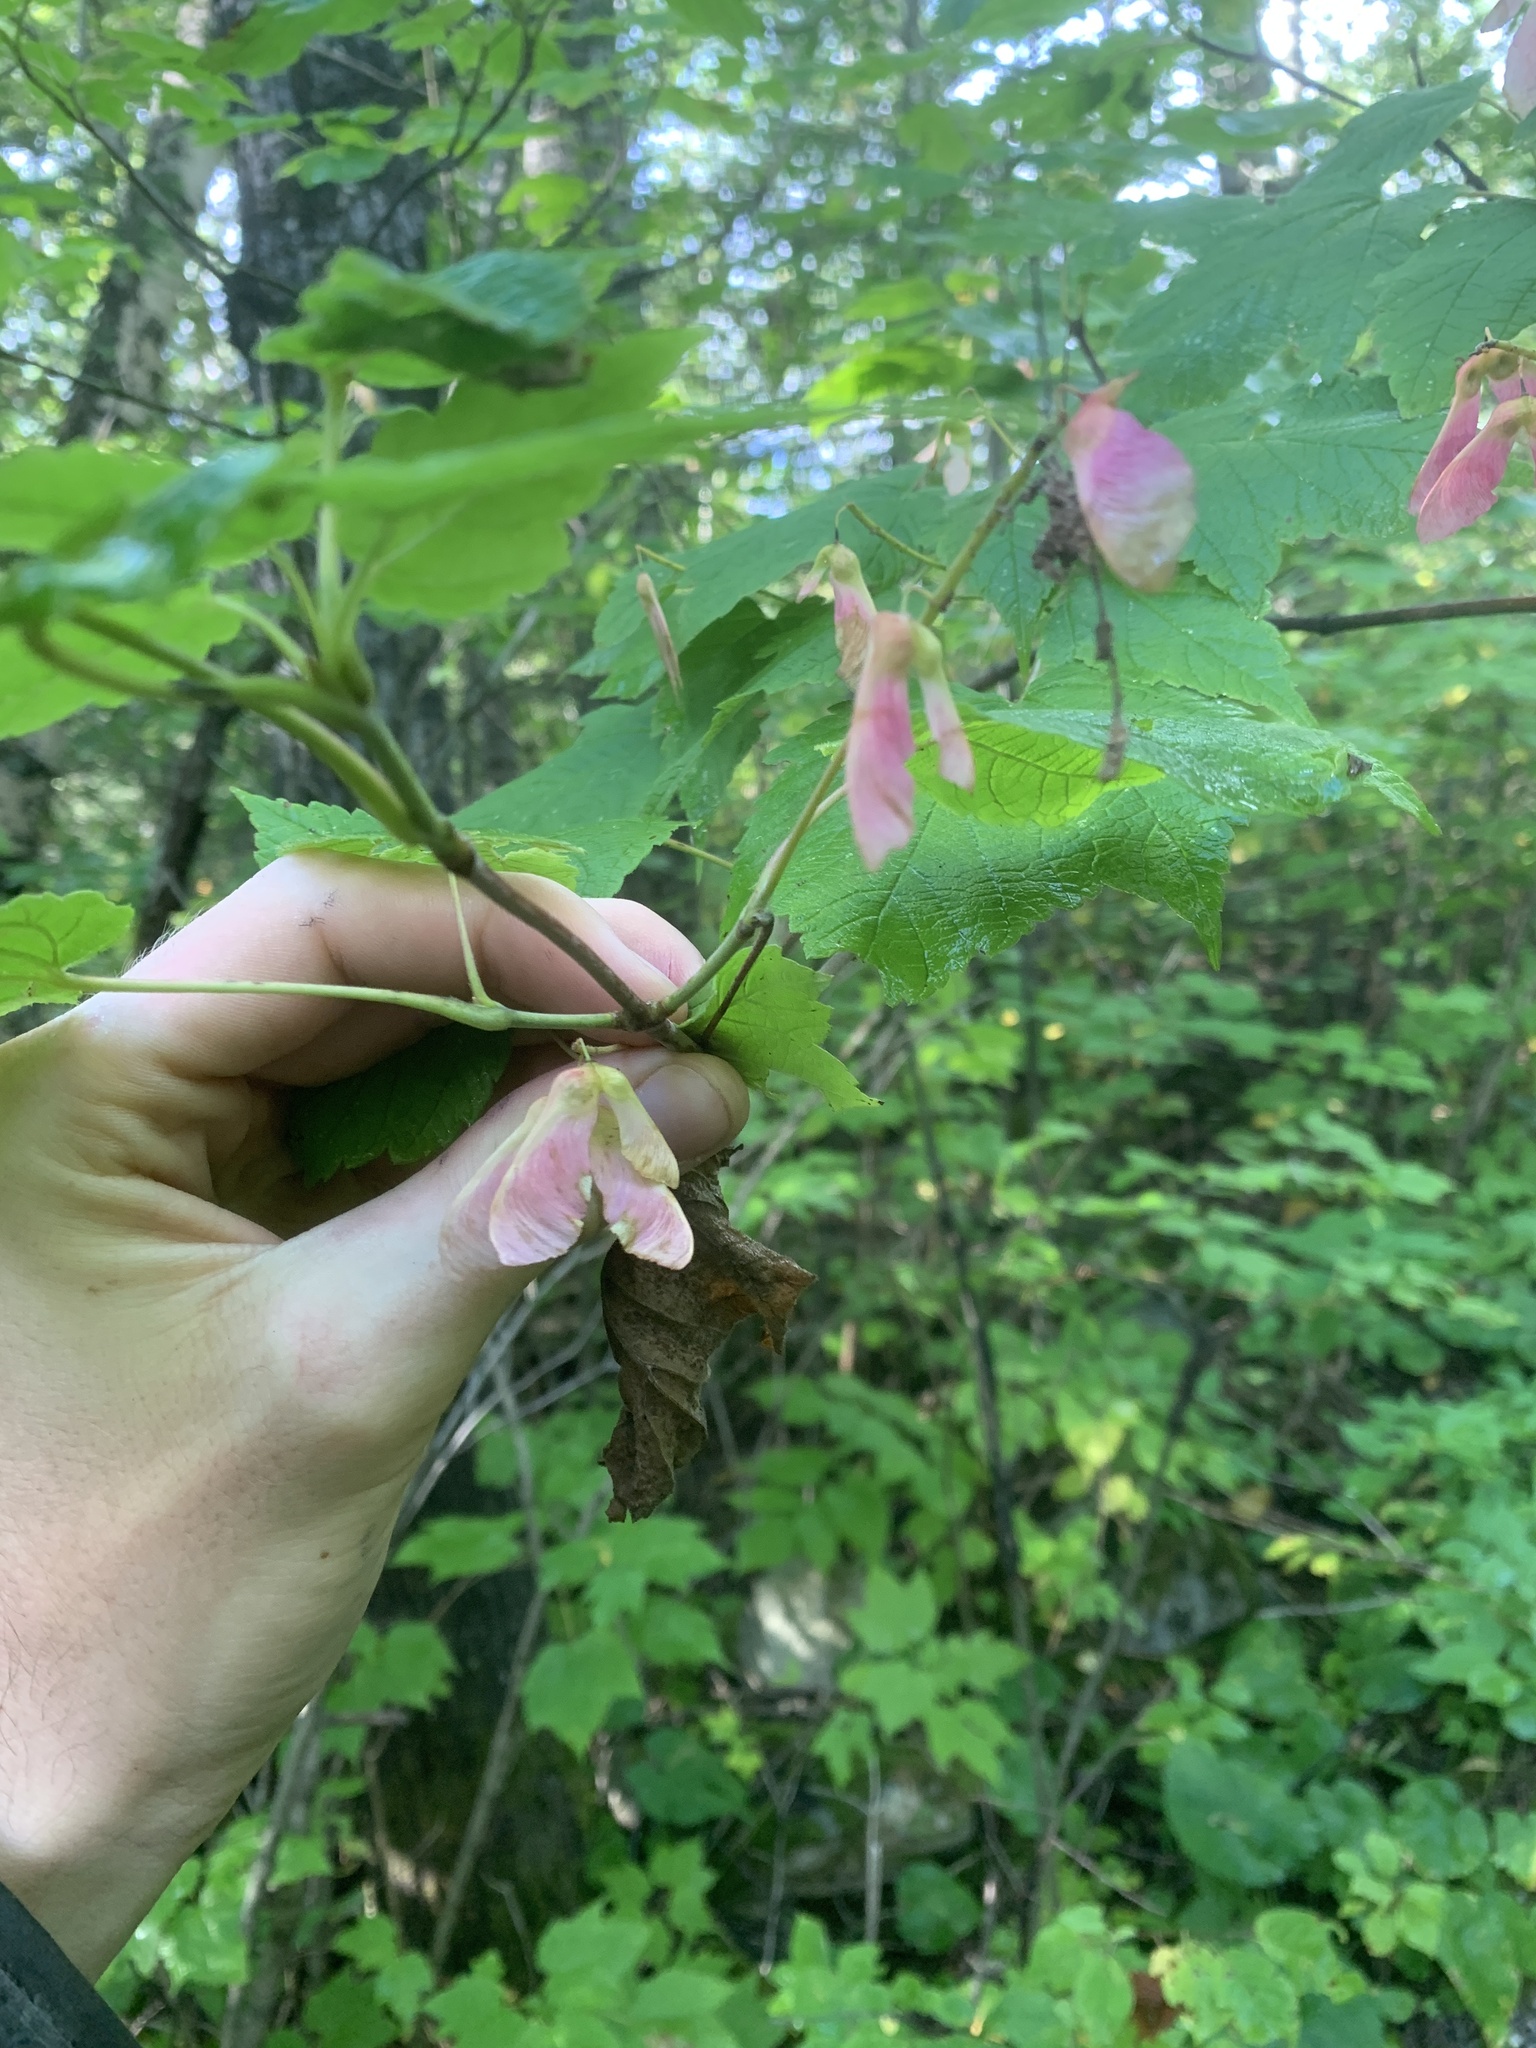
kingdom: Plantae
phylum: Tracheophyta
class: Magnoliopsida
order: Sapindales
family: Sapindaceae
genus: Acer
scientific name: Acer spicatum
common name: Mountain maple
